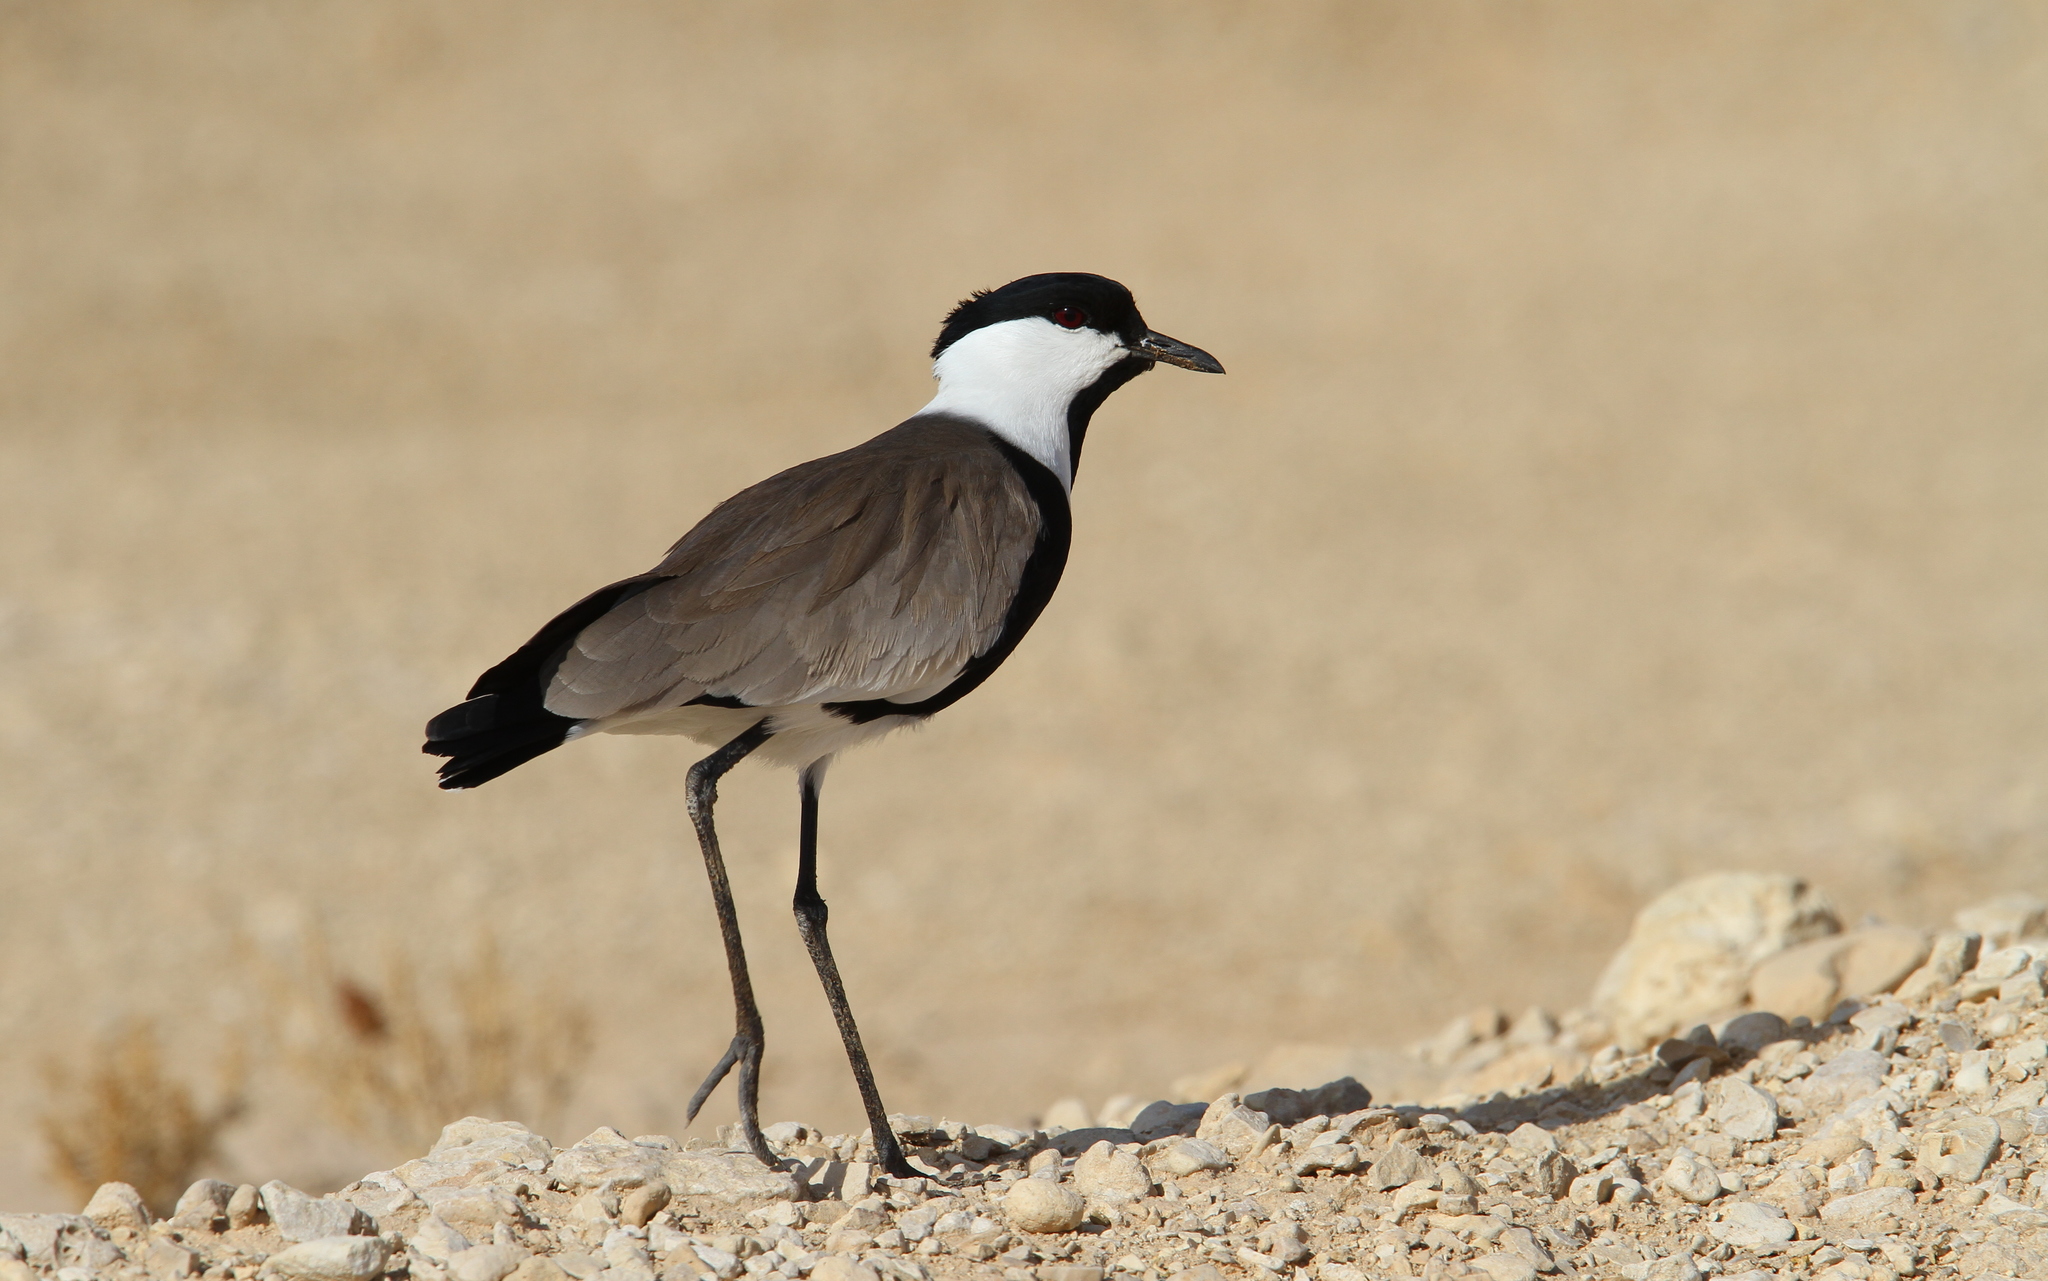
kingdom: Animalia
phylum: Chordata
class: Aves
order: Charadriiformes
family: Charadriidae
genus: Vanellus
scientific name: Vanellus spinosus
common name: Spur-winged lapwing
